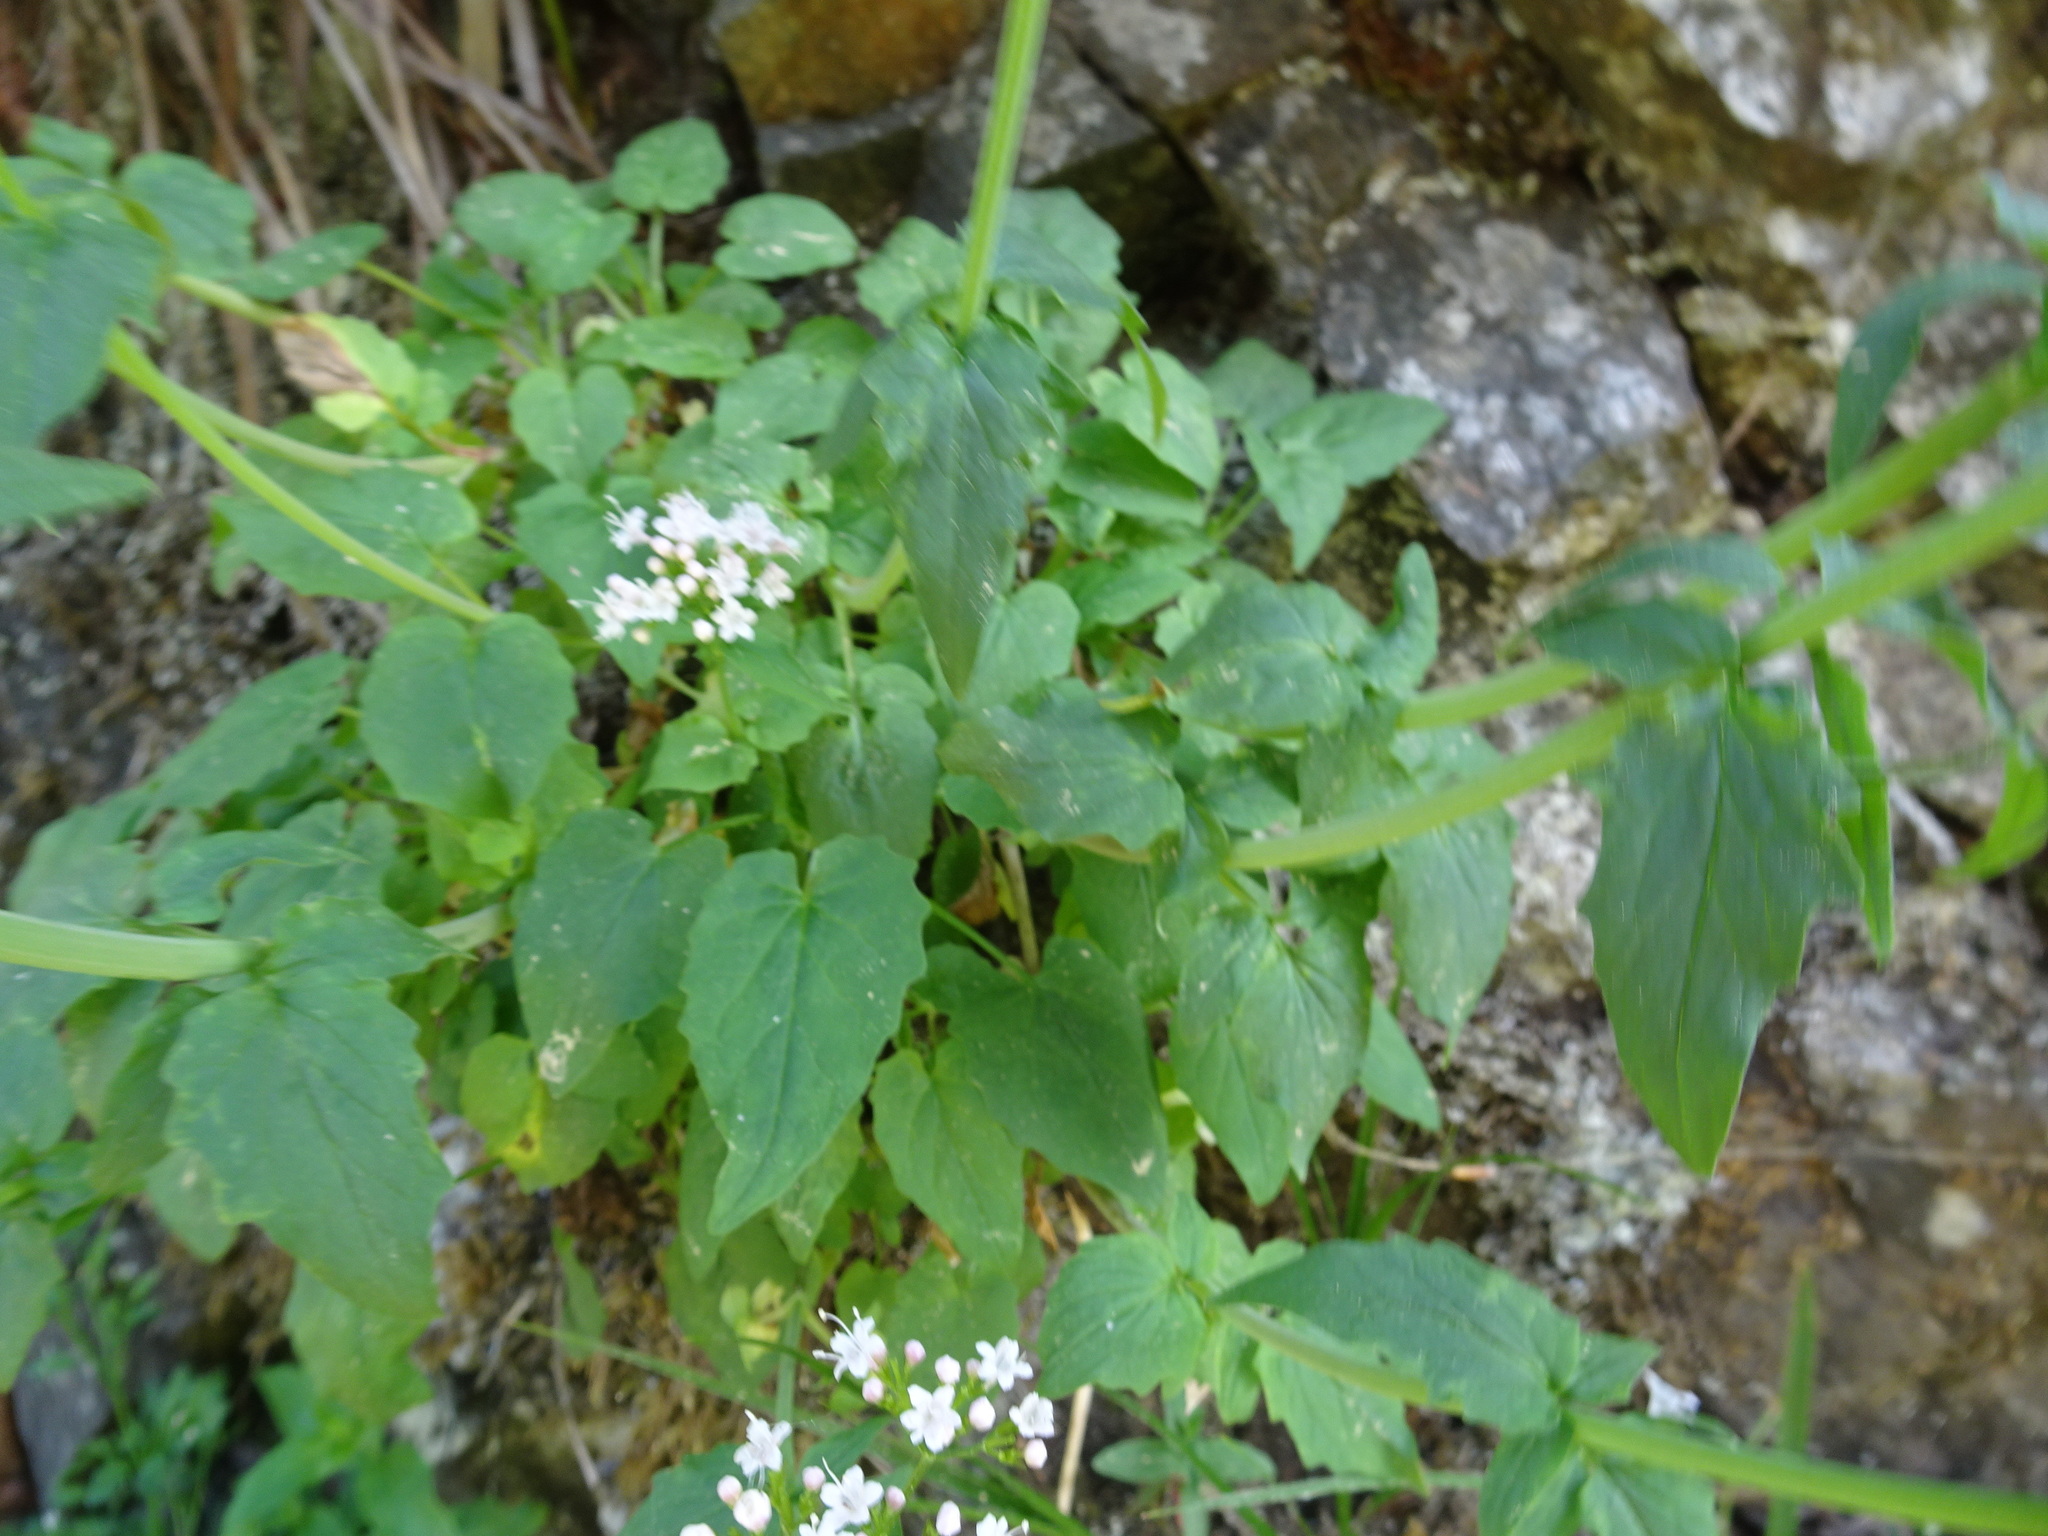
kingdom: Plantae
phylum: Tracheophyta
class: Magnoliopsida
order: Dipsacales
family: Caprifoliaceae
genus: Valeriana
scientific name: Valeriana tripteris
